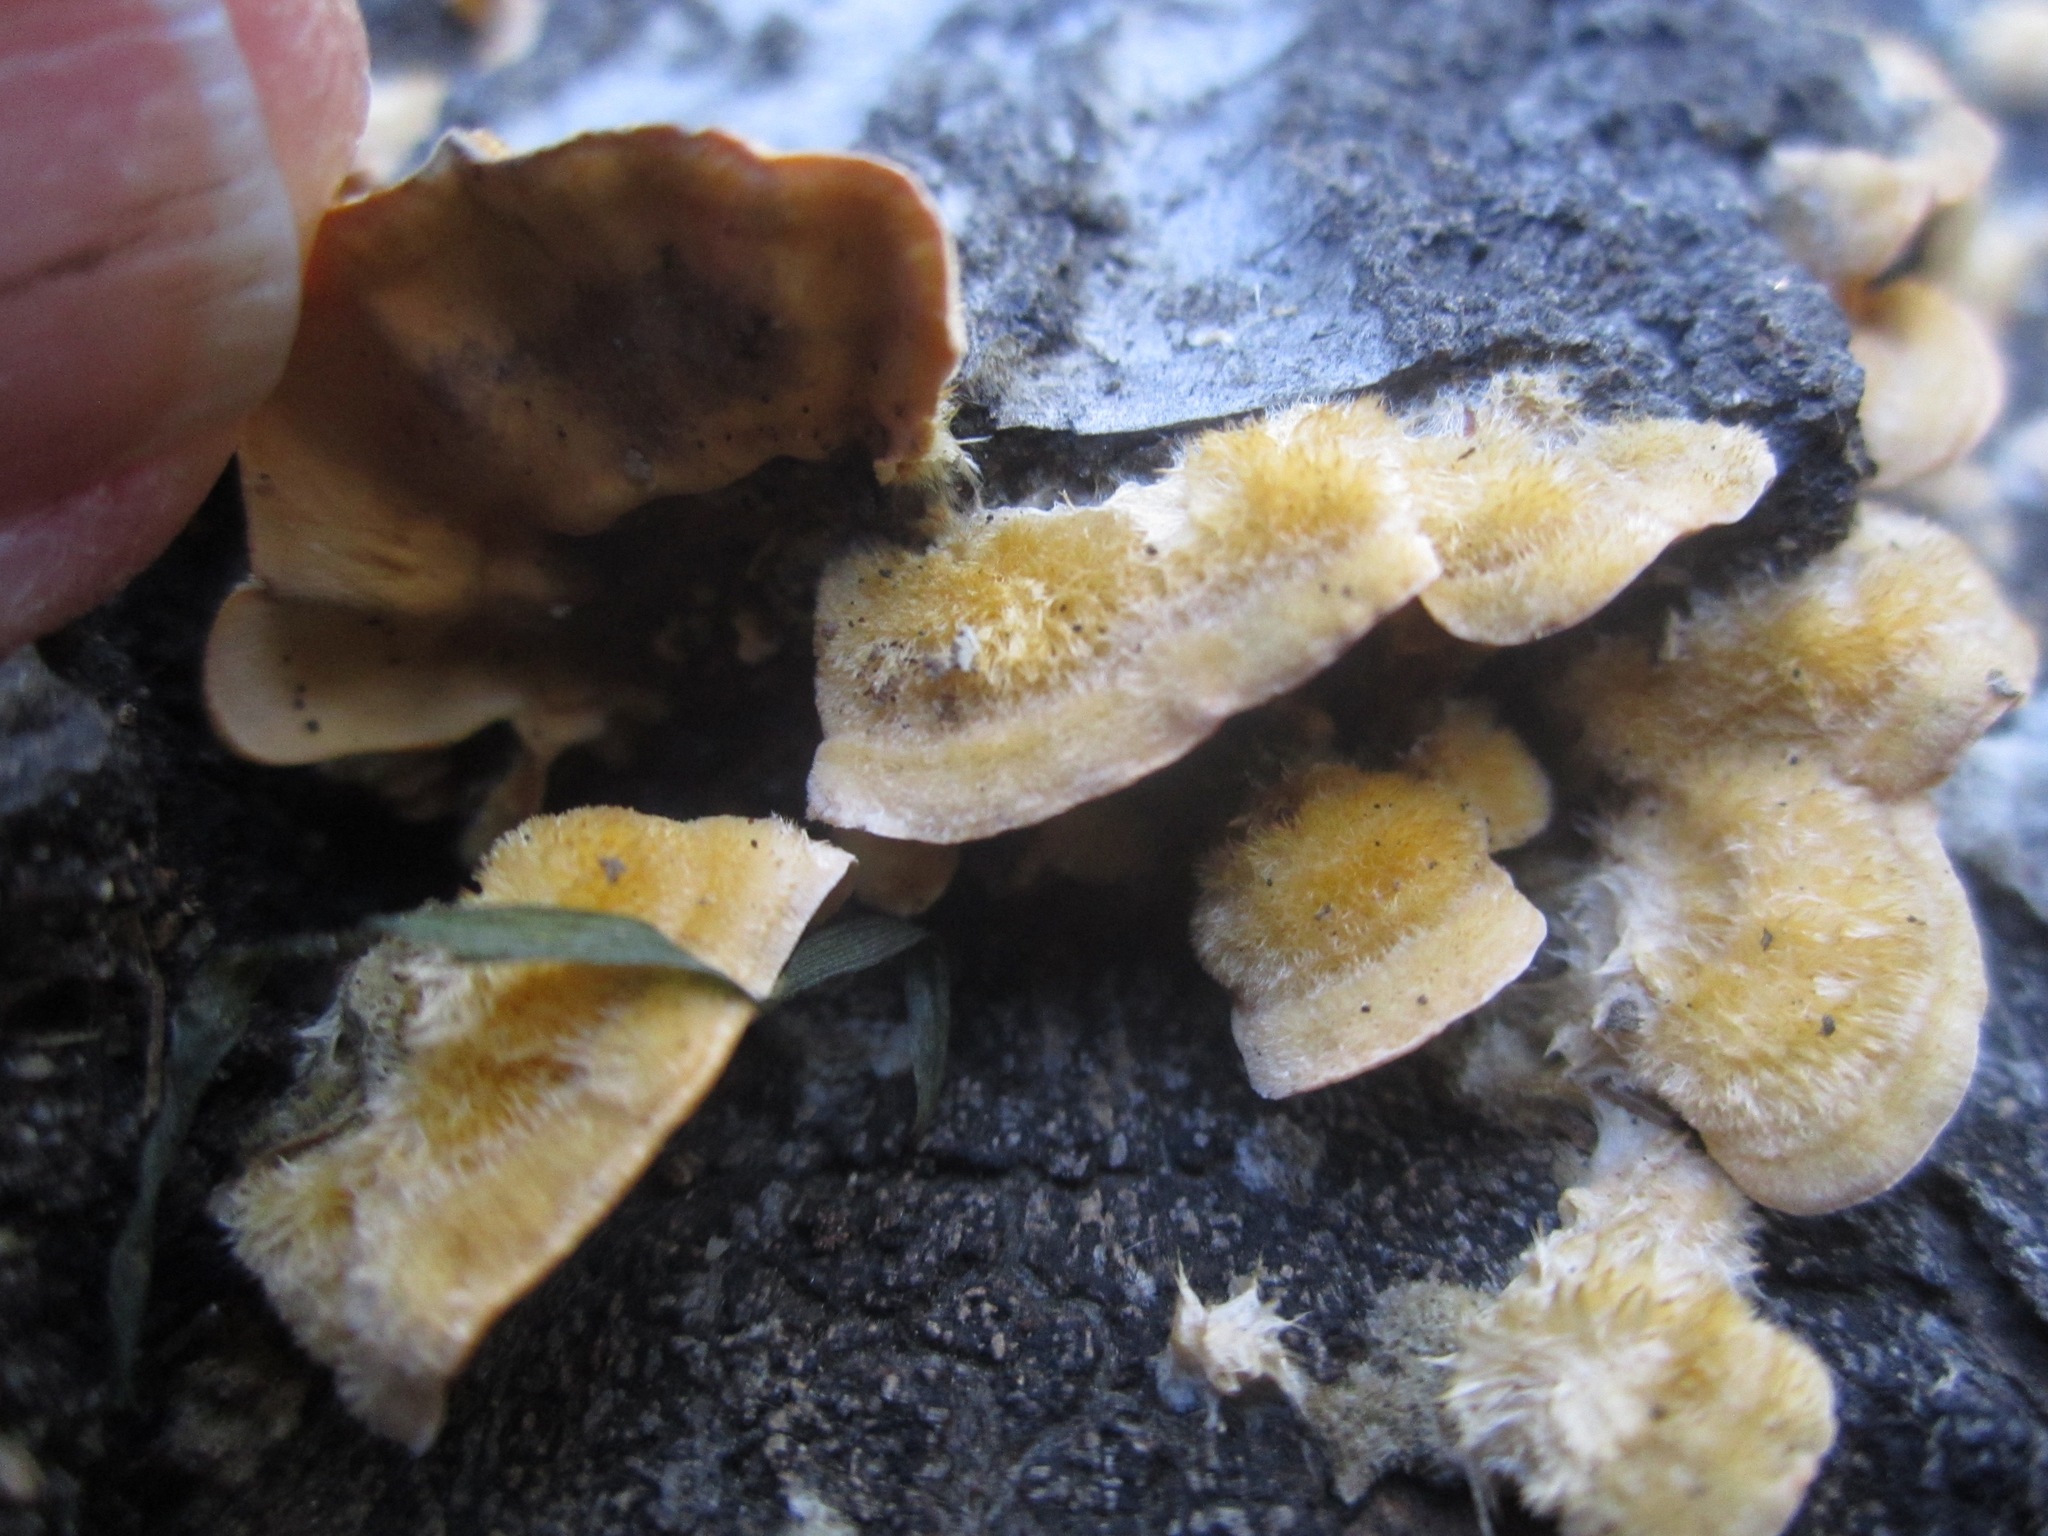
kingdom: Fungi
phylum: Basidiomycota
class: Agaricomycetes
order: Russulales
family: Stereaceae
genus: Stereum
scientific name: Stereum hirsutum
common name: Hairy curtain crust
